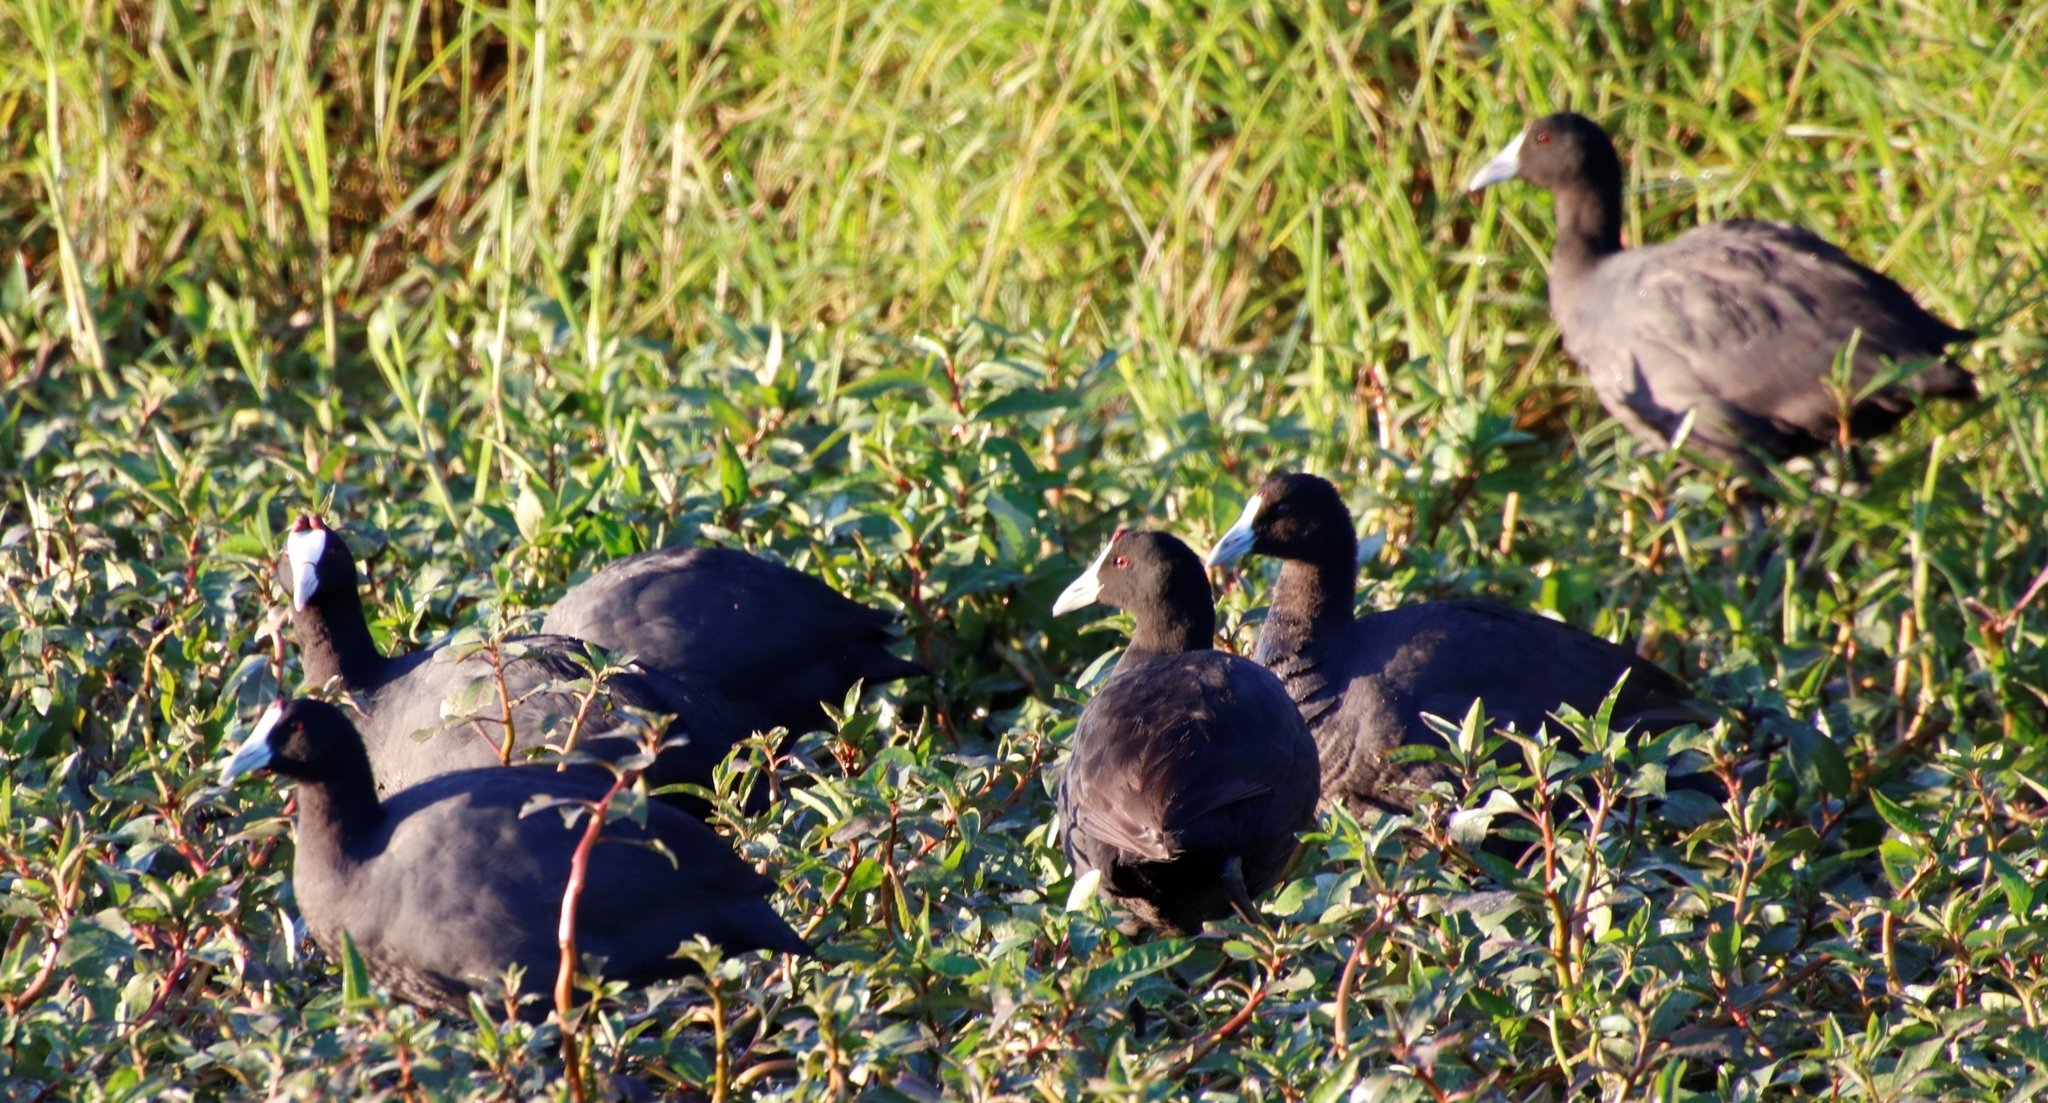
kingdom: Animalia
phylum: Chordata
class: Aves
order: Gruiformes
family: Rallidae
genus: Fulica
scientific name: Fulica cristata
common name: Red-knobbed coot
